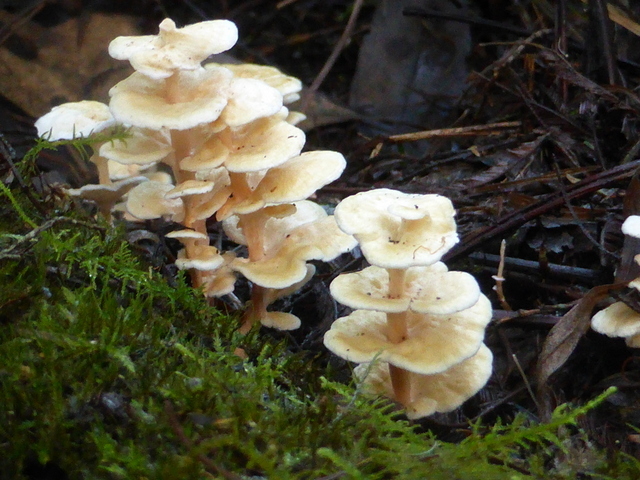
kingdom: Fungi
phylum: Basidiomycota
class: Agaricomycetes
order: Amylocorticiales
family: Amylocorticiaceae
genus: Podoserpula
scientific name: Podoserpula pusio
